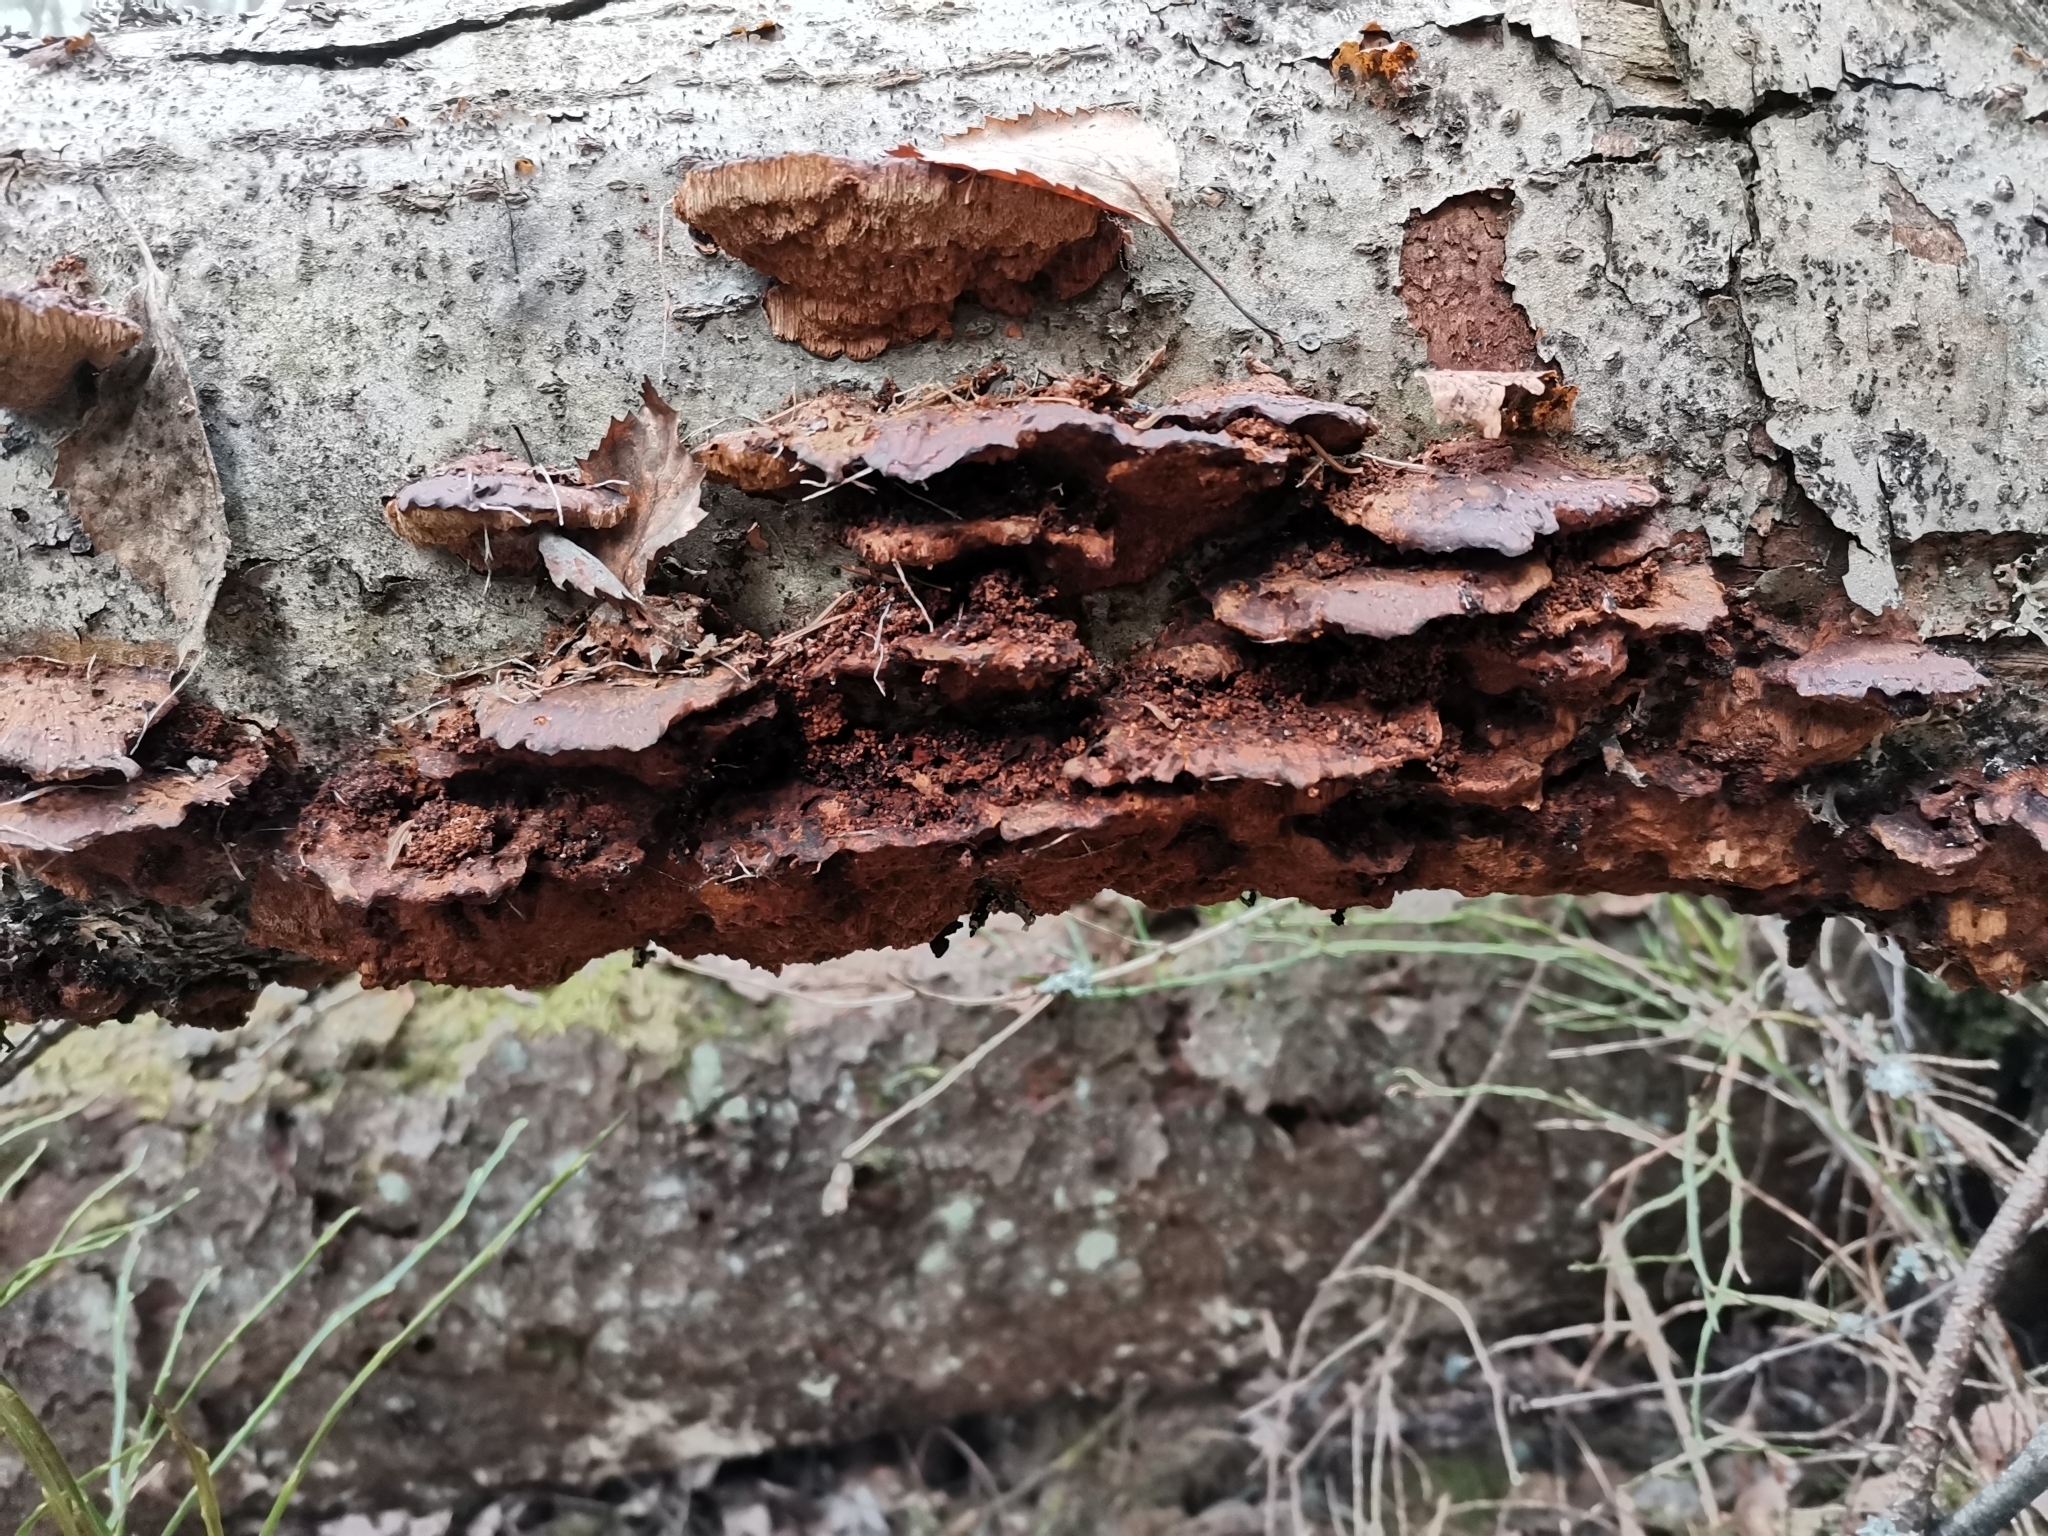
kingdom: Fungi
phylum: Basidiomycota
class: Agaricomycetes
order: Hymenochaetales
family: Hymenochaetaceae
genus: Xanthoporia
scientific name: Xanthoporia radiata
